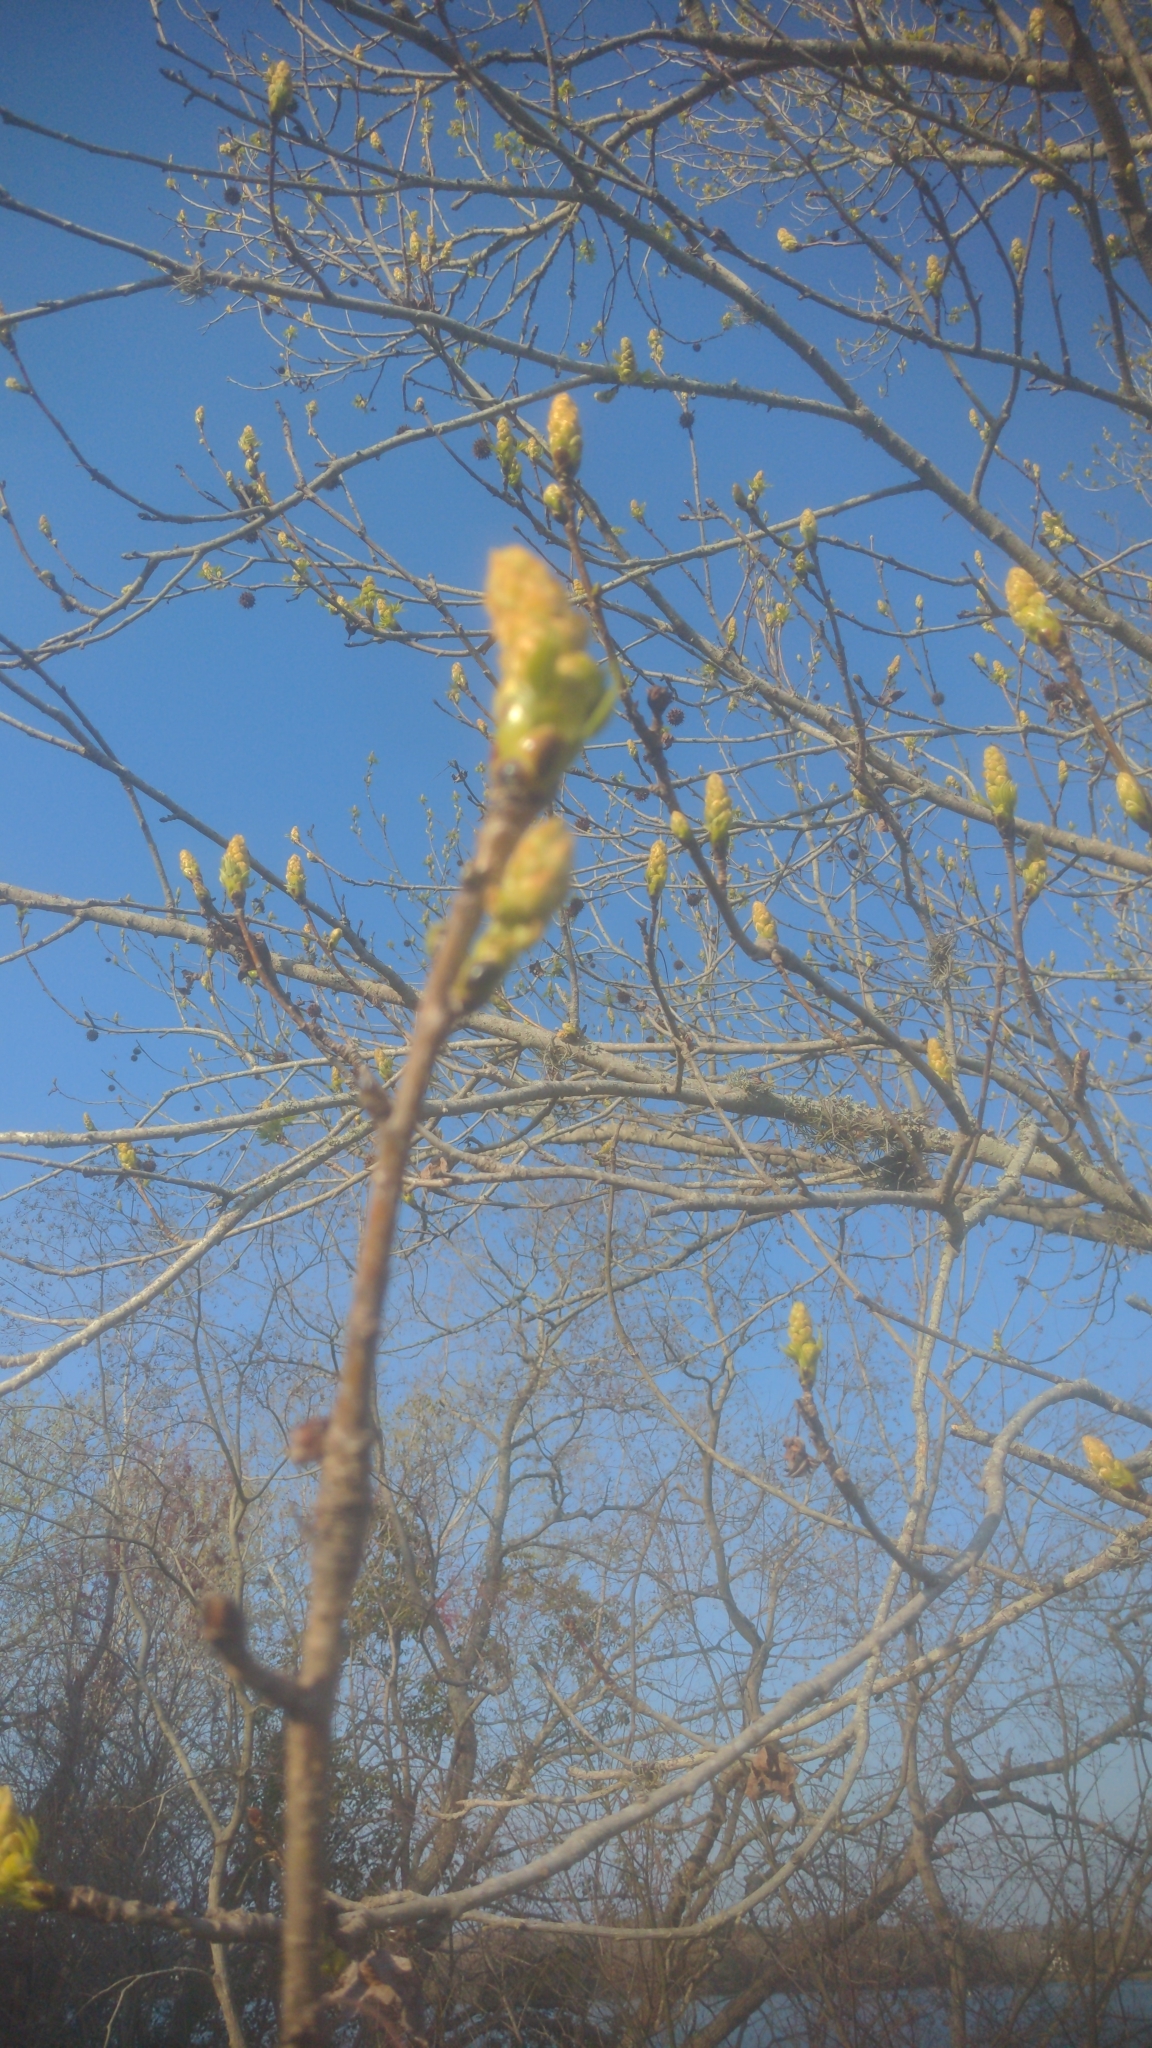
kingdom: Plantae
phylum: Tracheophyta
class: Magnoliopsida
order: Saxifragales
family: Altingiaceae
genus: Liquidambar
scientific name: Liquidambar styraciflua
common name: Sweet gum
